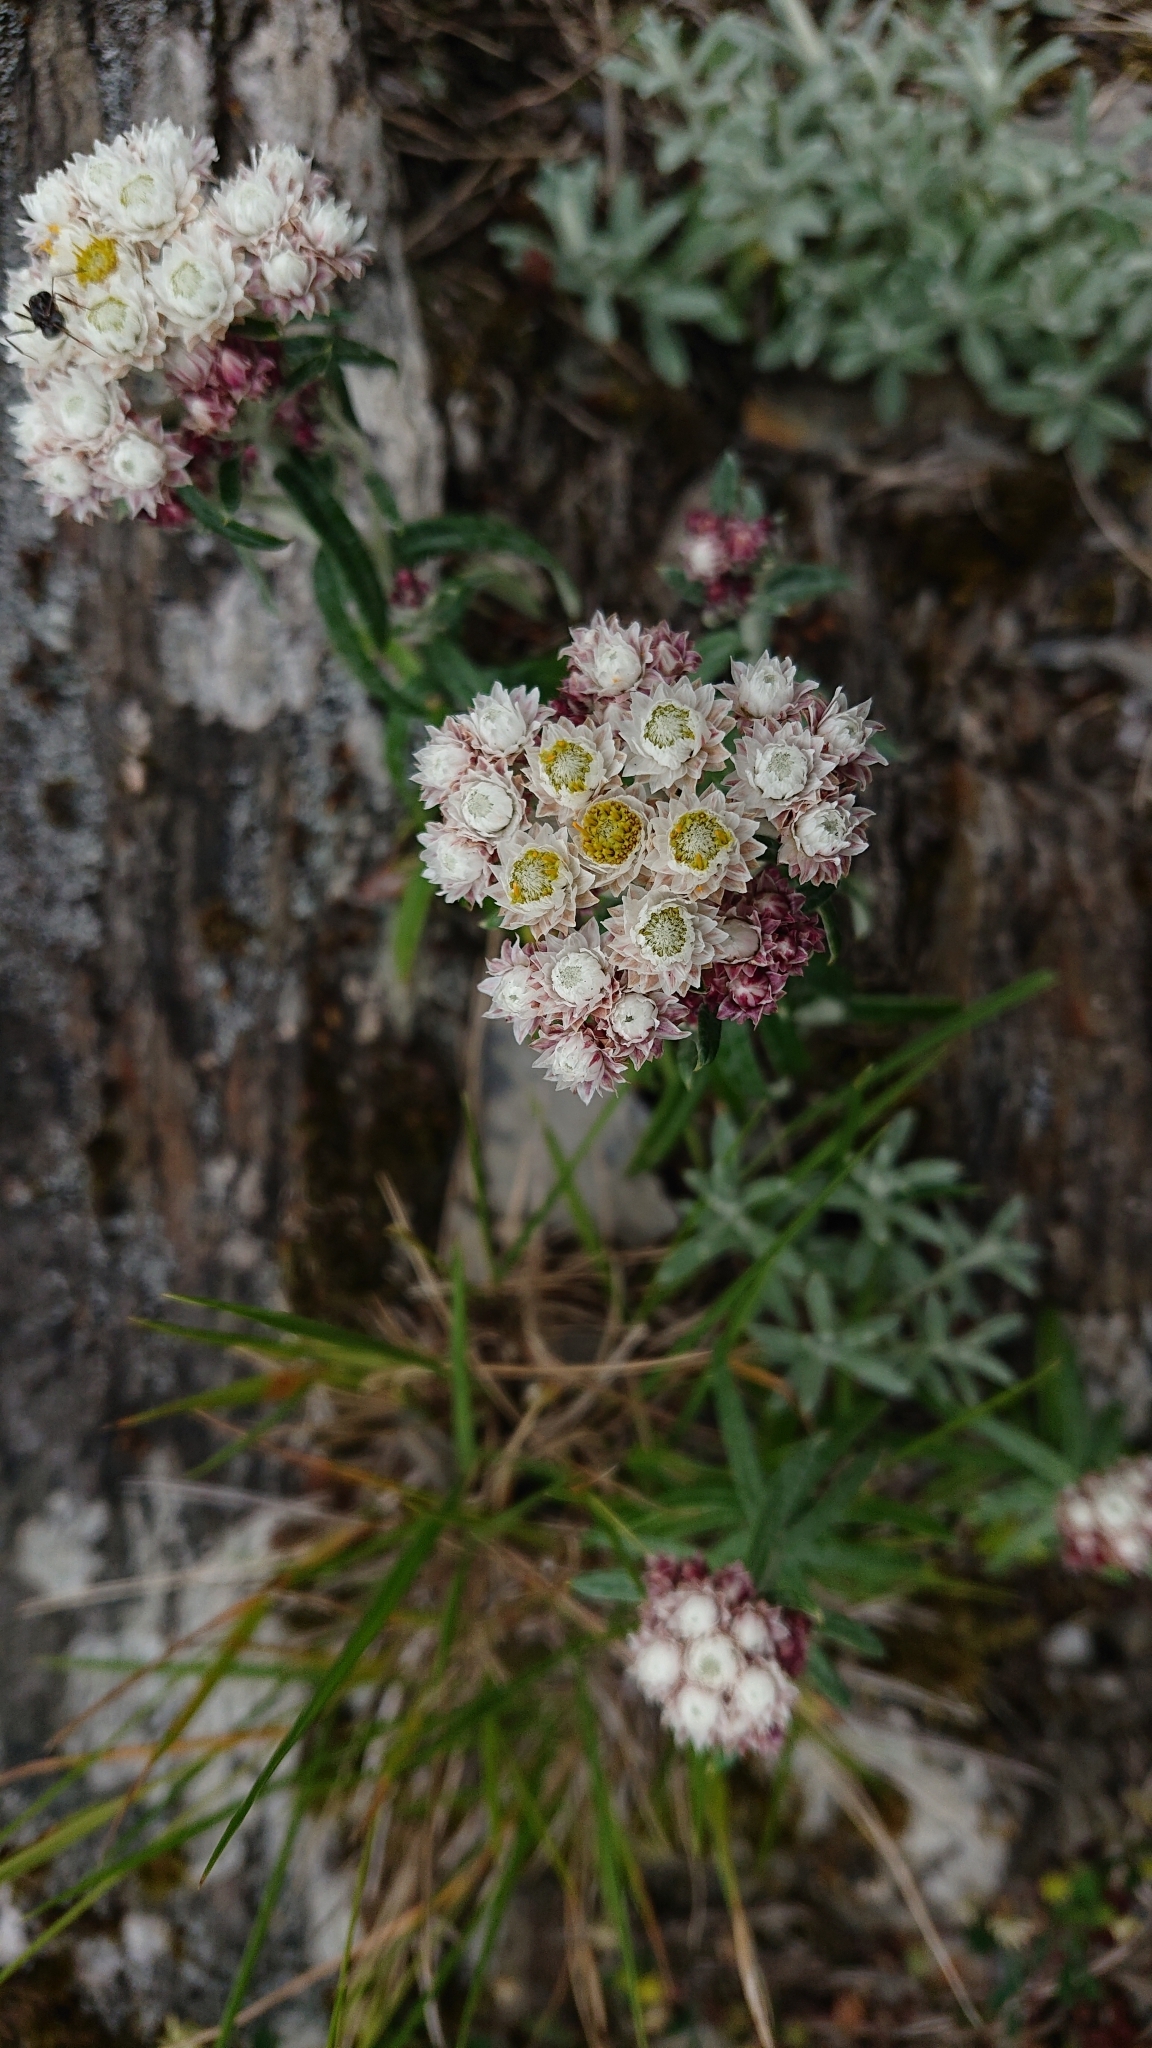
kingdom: Plantae
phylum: Tracheophyta
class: Magnoliopsida
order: Asterales
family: Asteraceae
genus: Anaphalis
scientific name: Anaphalis morrisonicola
